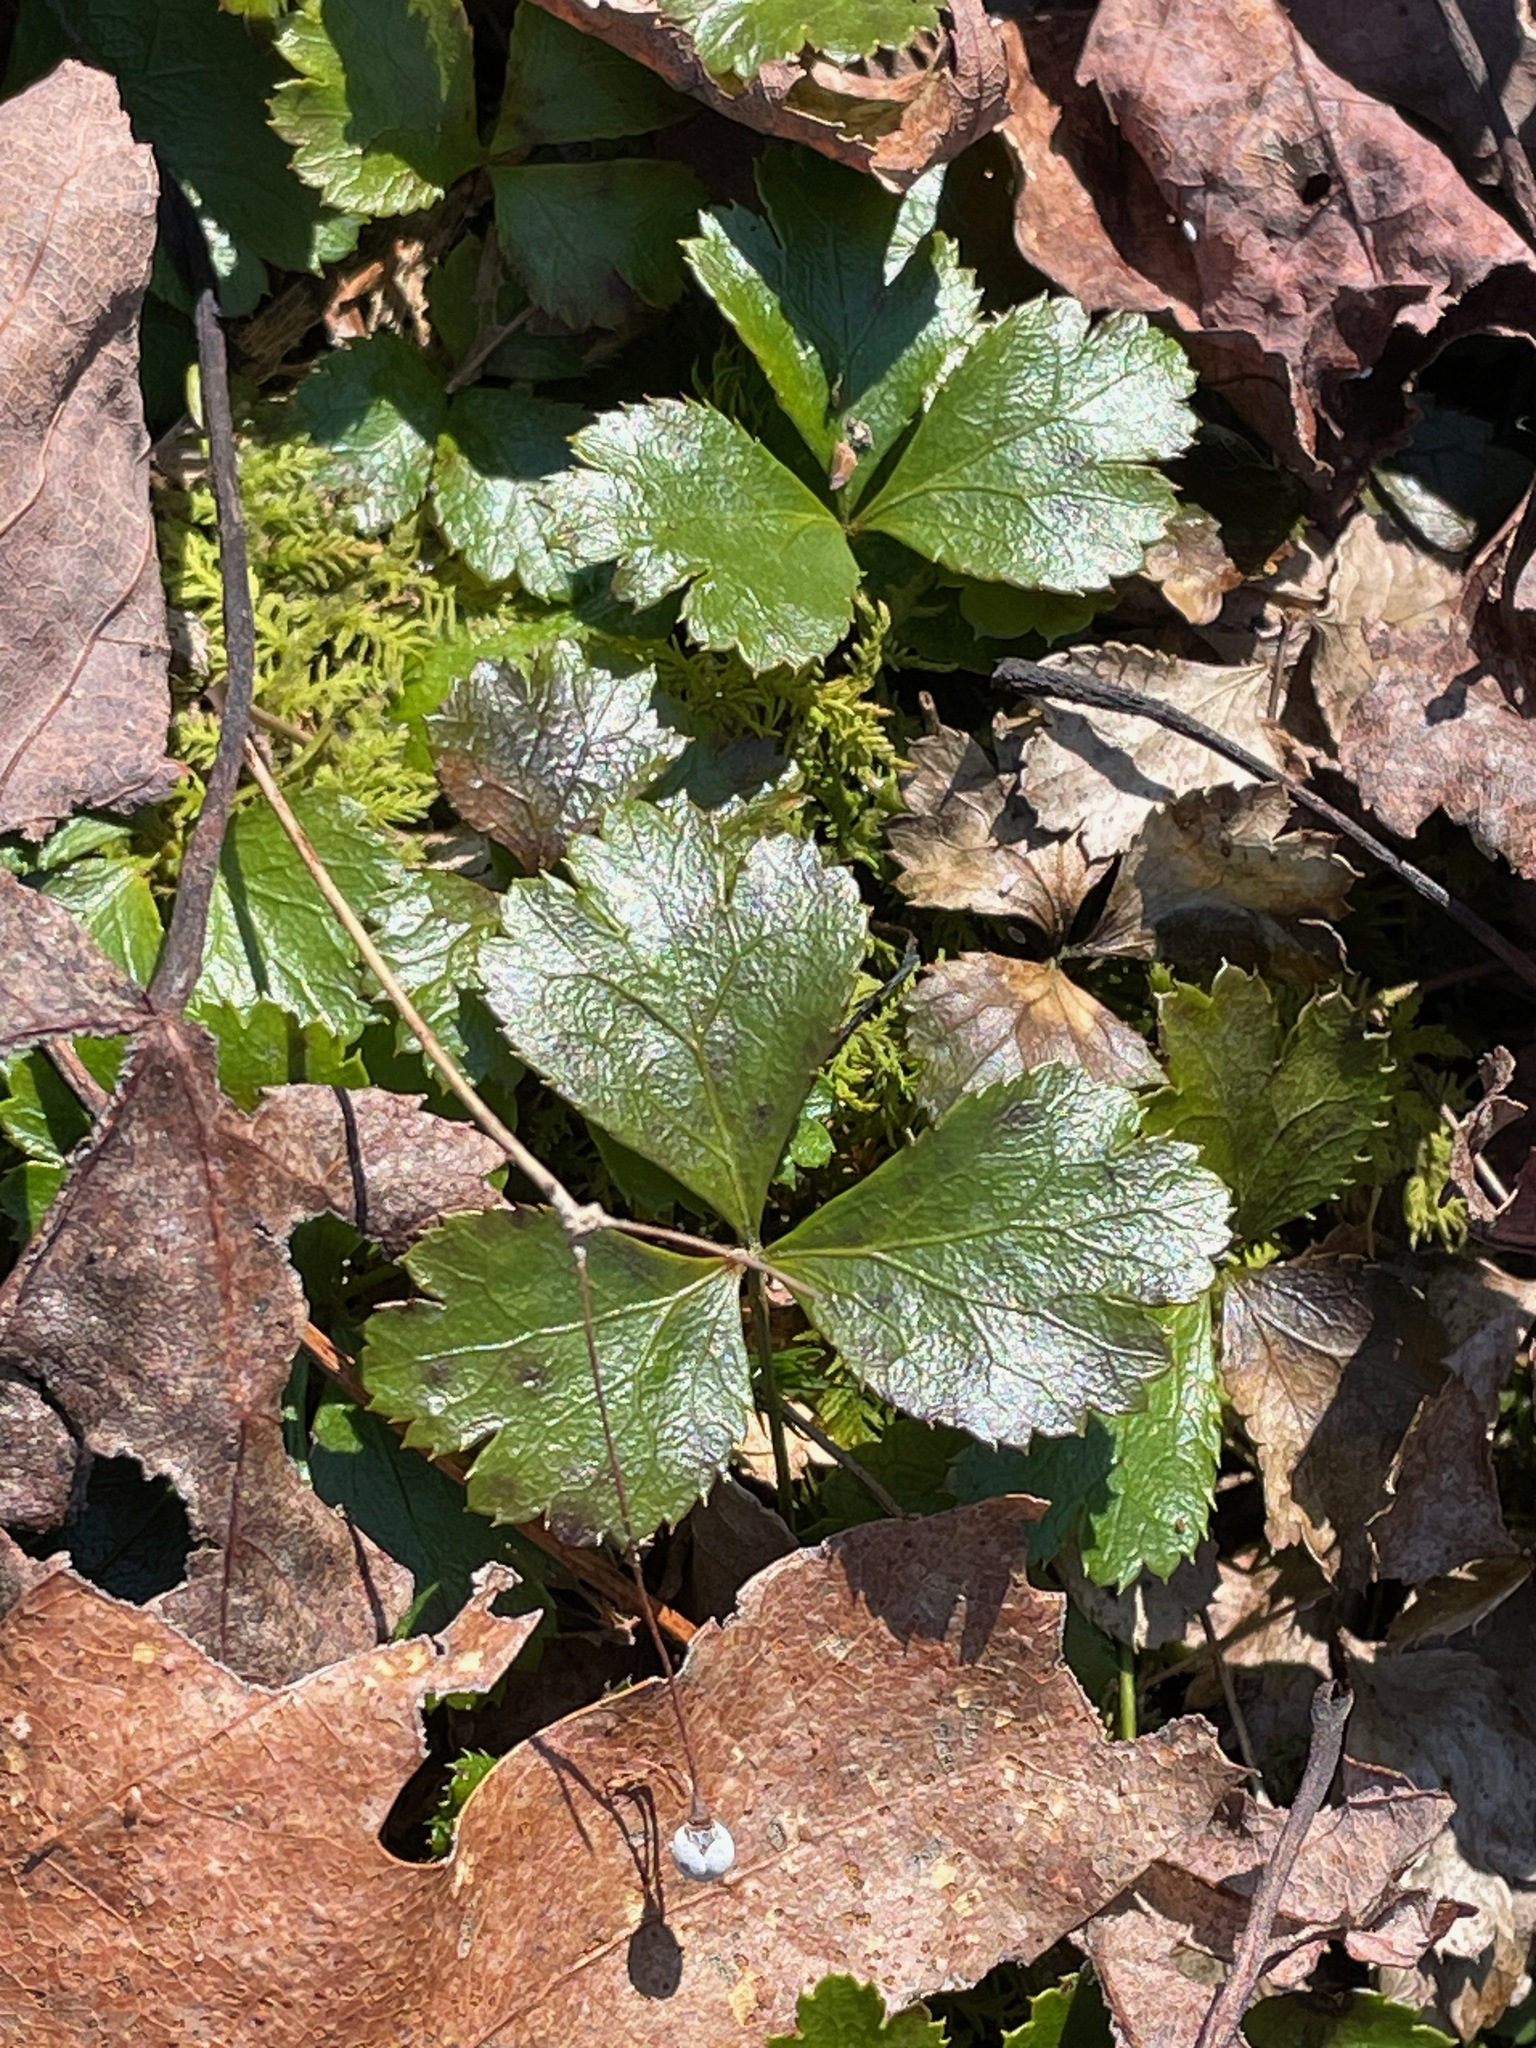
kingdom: Plantae
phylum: Tracheophyta
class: Magnoliopsida
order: Ranunculales
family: Ranunculaceae
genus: Coptis
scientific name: Coptis trifolia
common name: Canker-root
